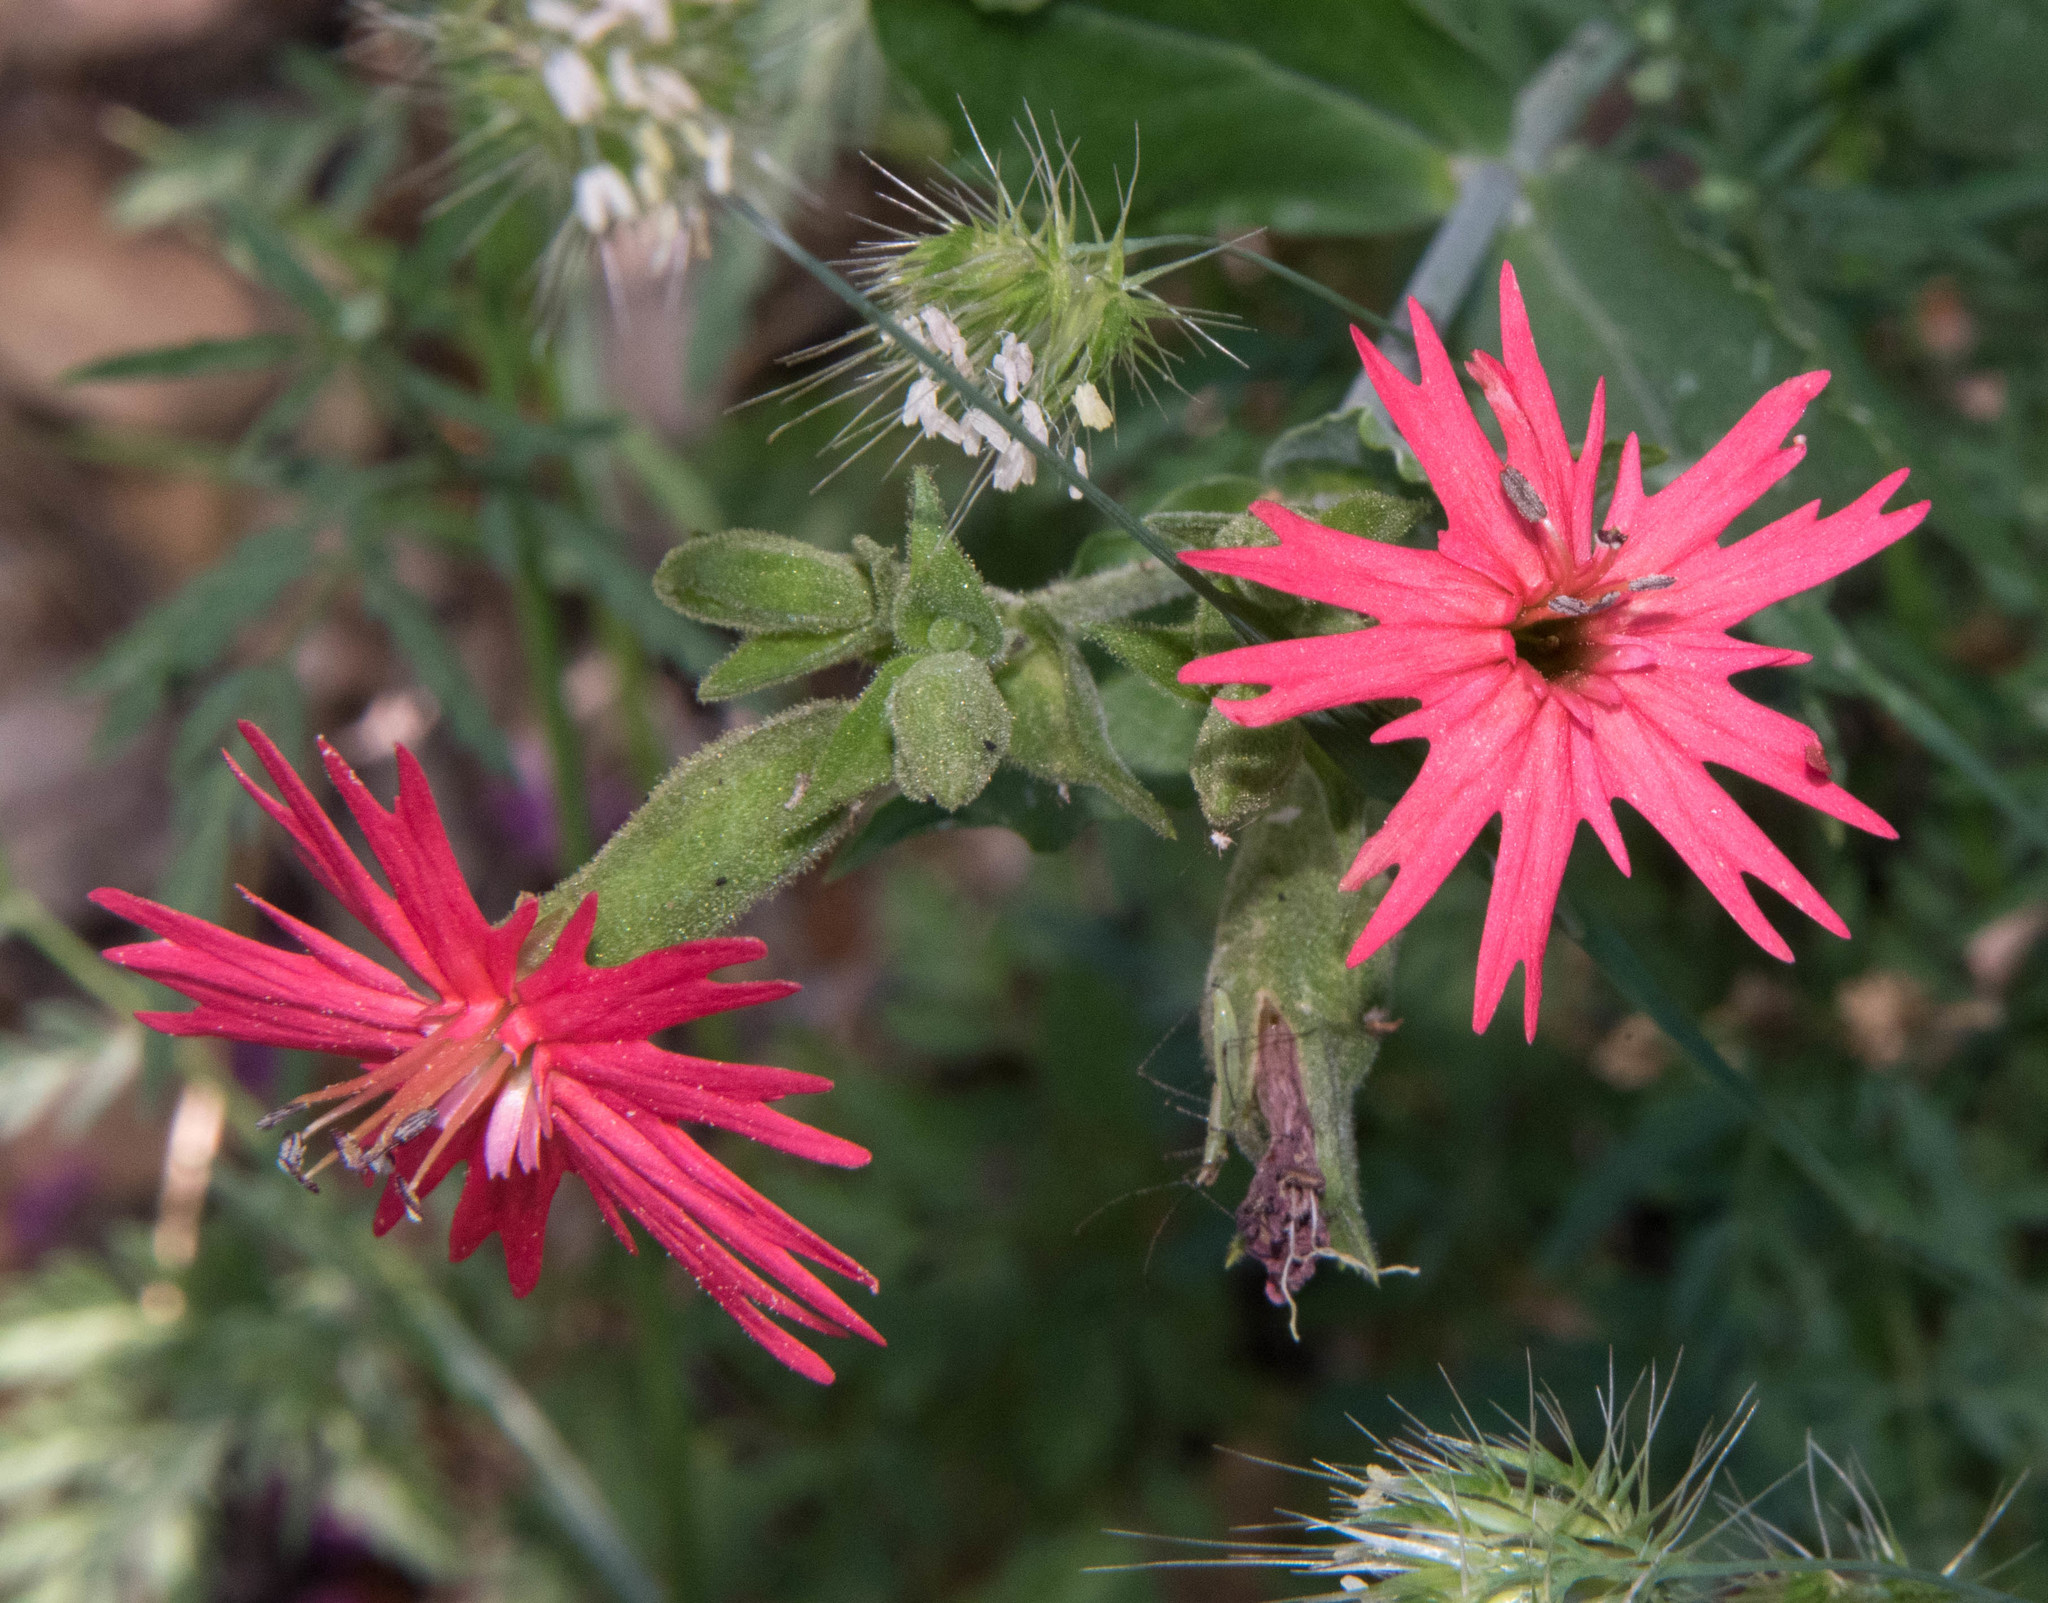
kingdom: Plantae
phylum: Tracheophyta
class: Magnoliopsida
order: Caryophyllales
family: Caryophyllaceae
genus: Silene
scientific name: Silene laciniata
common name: Indian-pink
